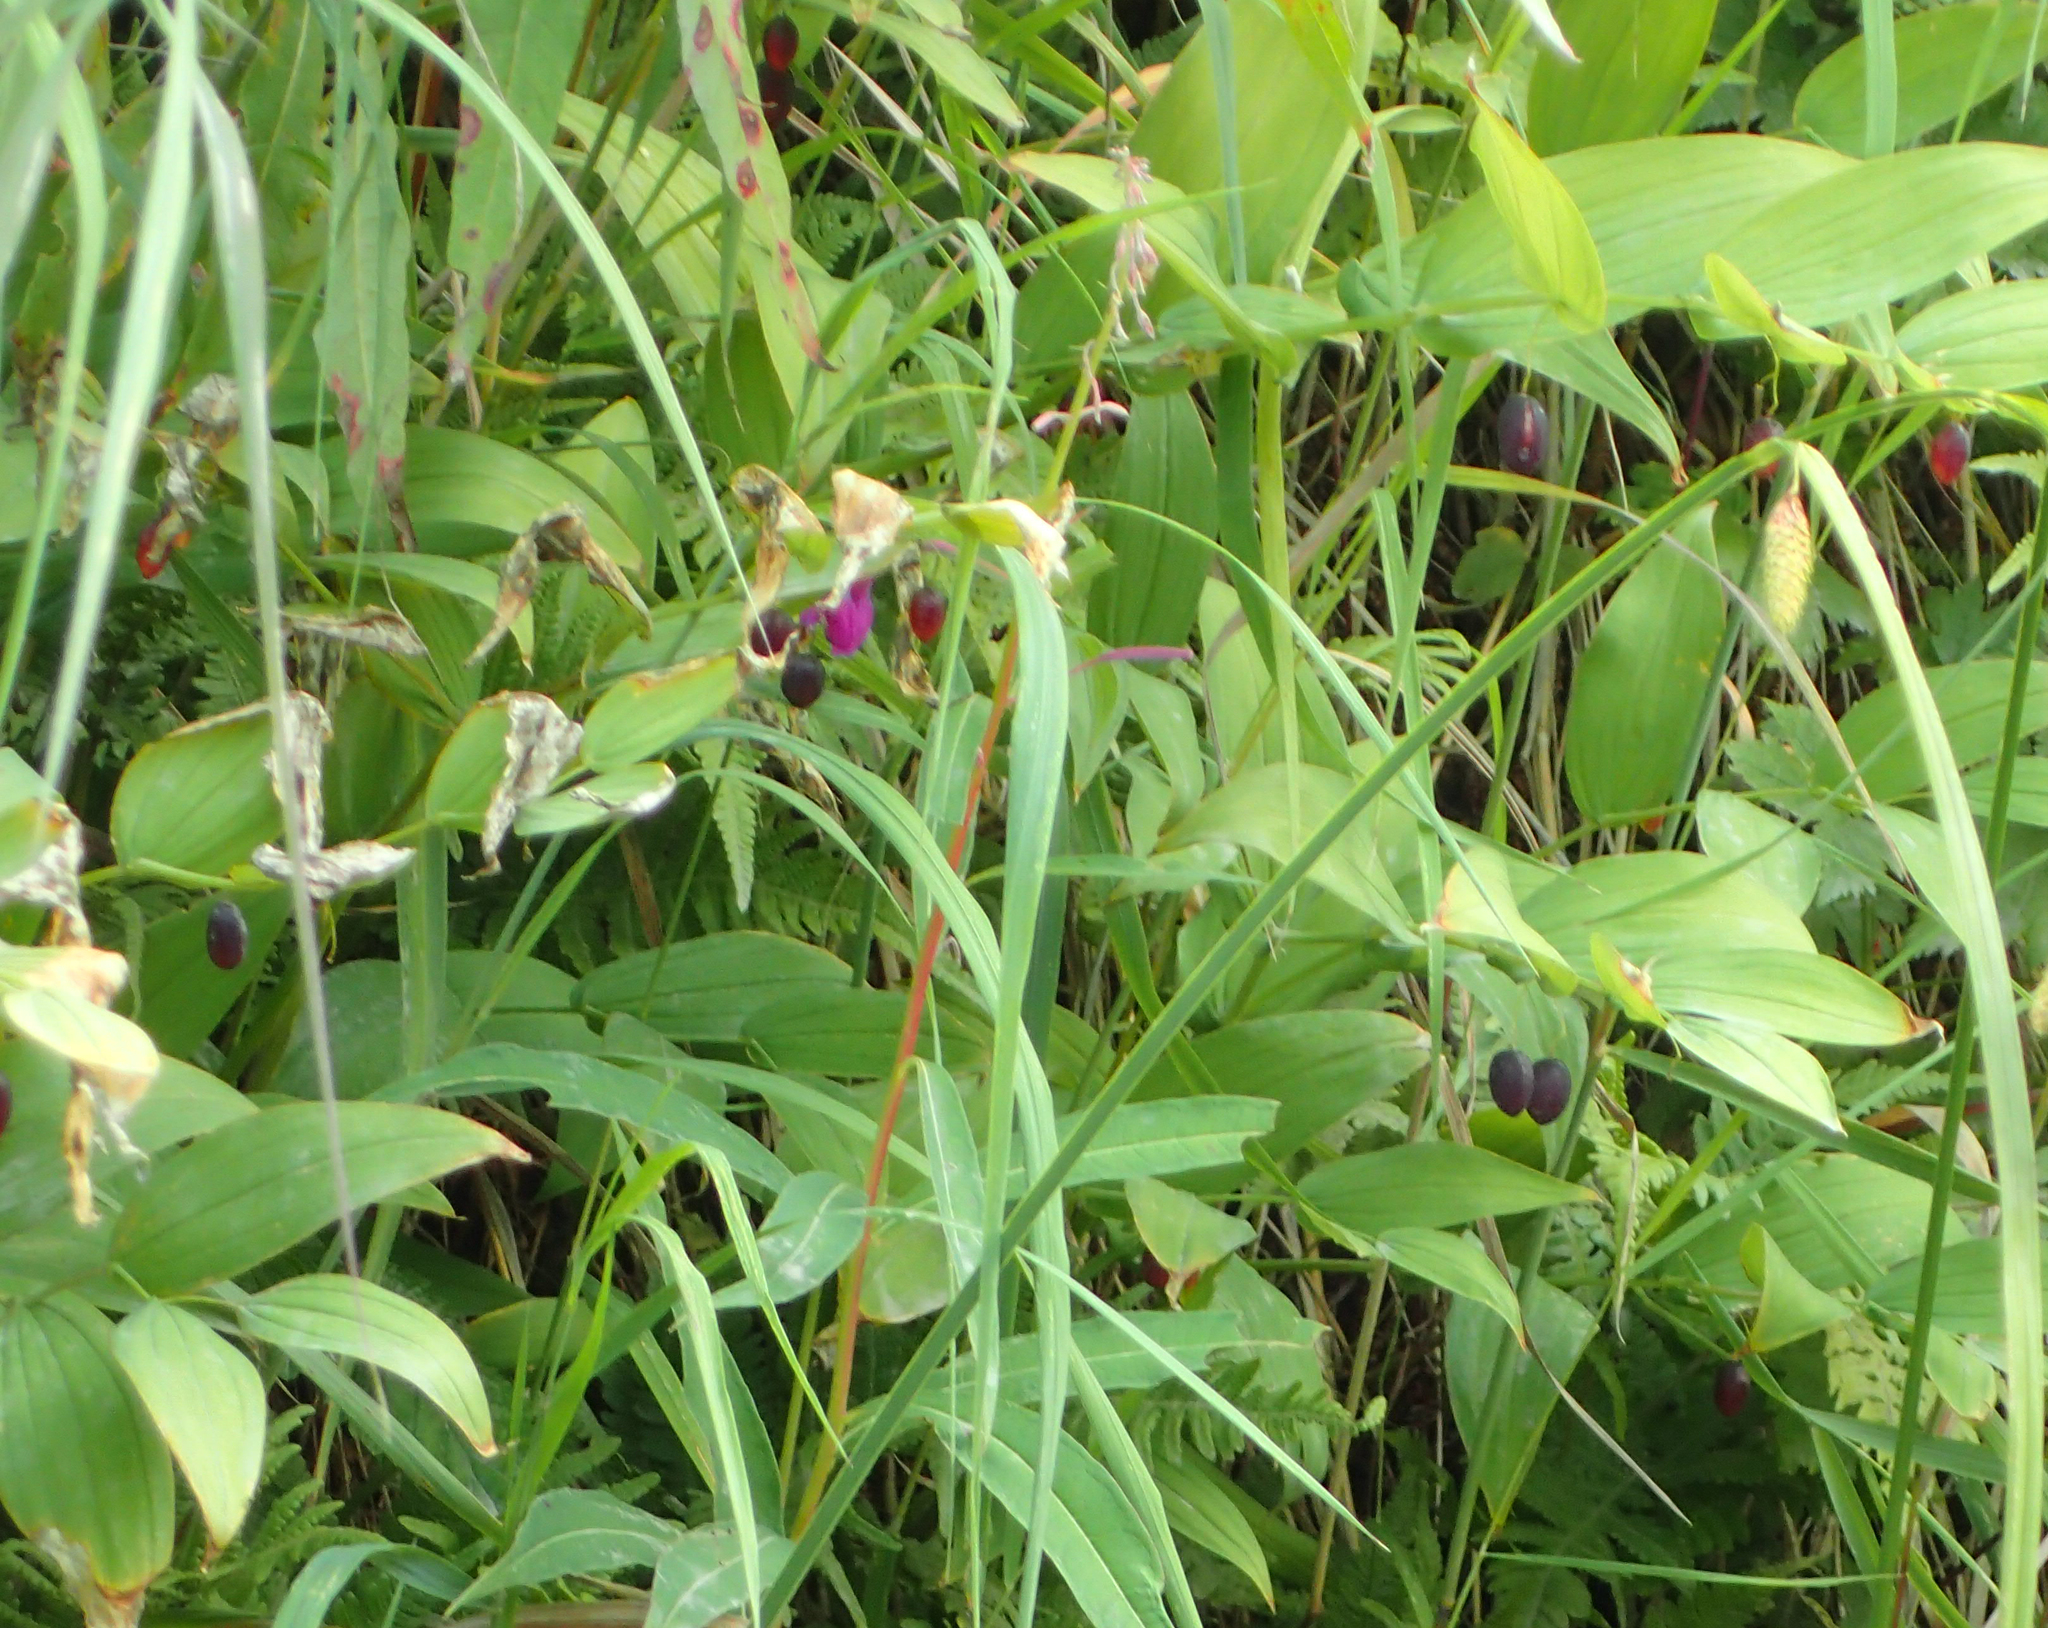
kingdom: Plantae
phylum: Tracheophyta
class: Liliopsida
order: Liliales
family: Liliaceae
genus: Streptopus
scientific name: Streptopus amplexifolius
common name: Clasp twisted stalk
